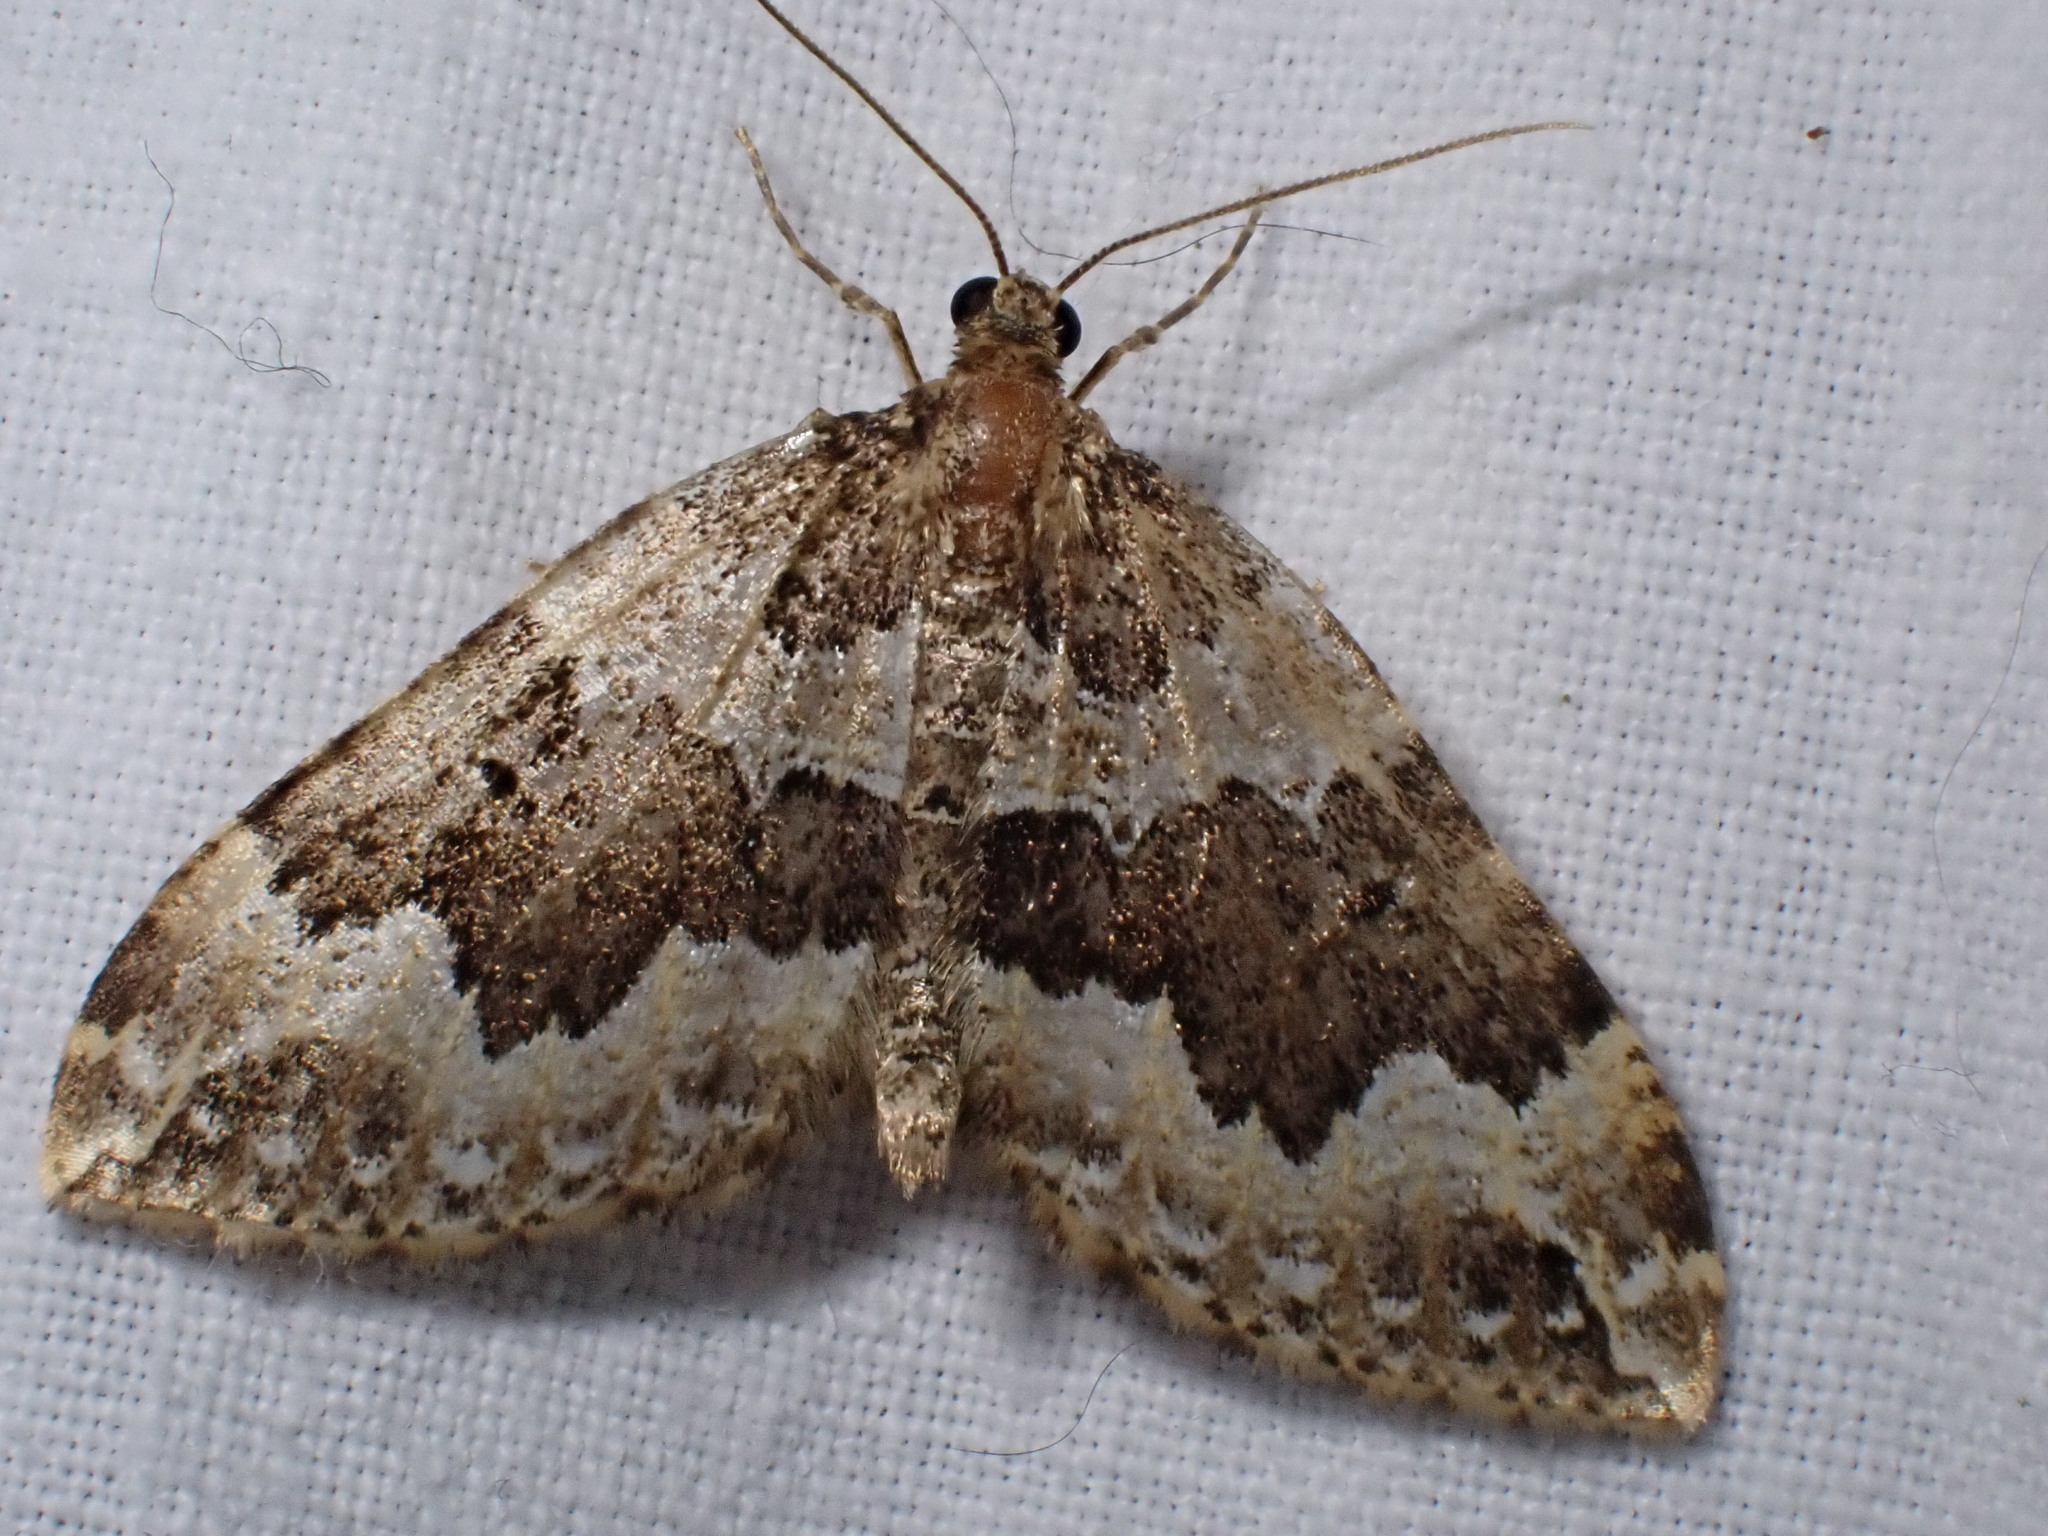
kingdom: Animalia
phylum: Arthropoda
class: Insecta
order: Lepidoptera
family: Geometridae
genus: Lampropteryx
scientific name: Lampropteryx suffumata
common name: Water carpet
